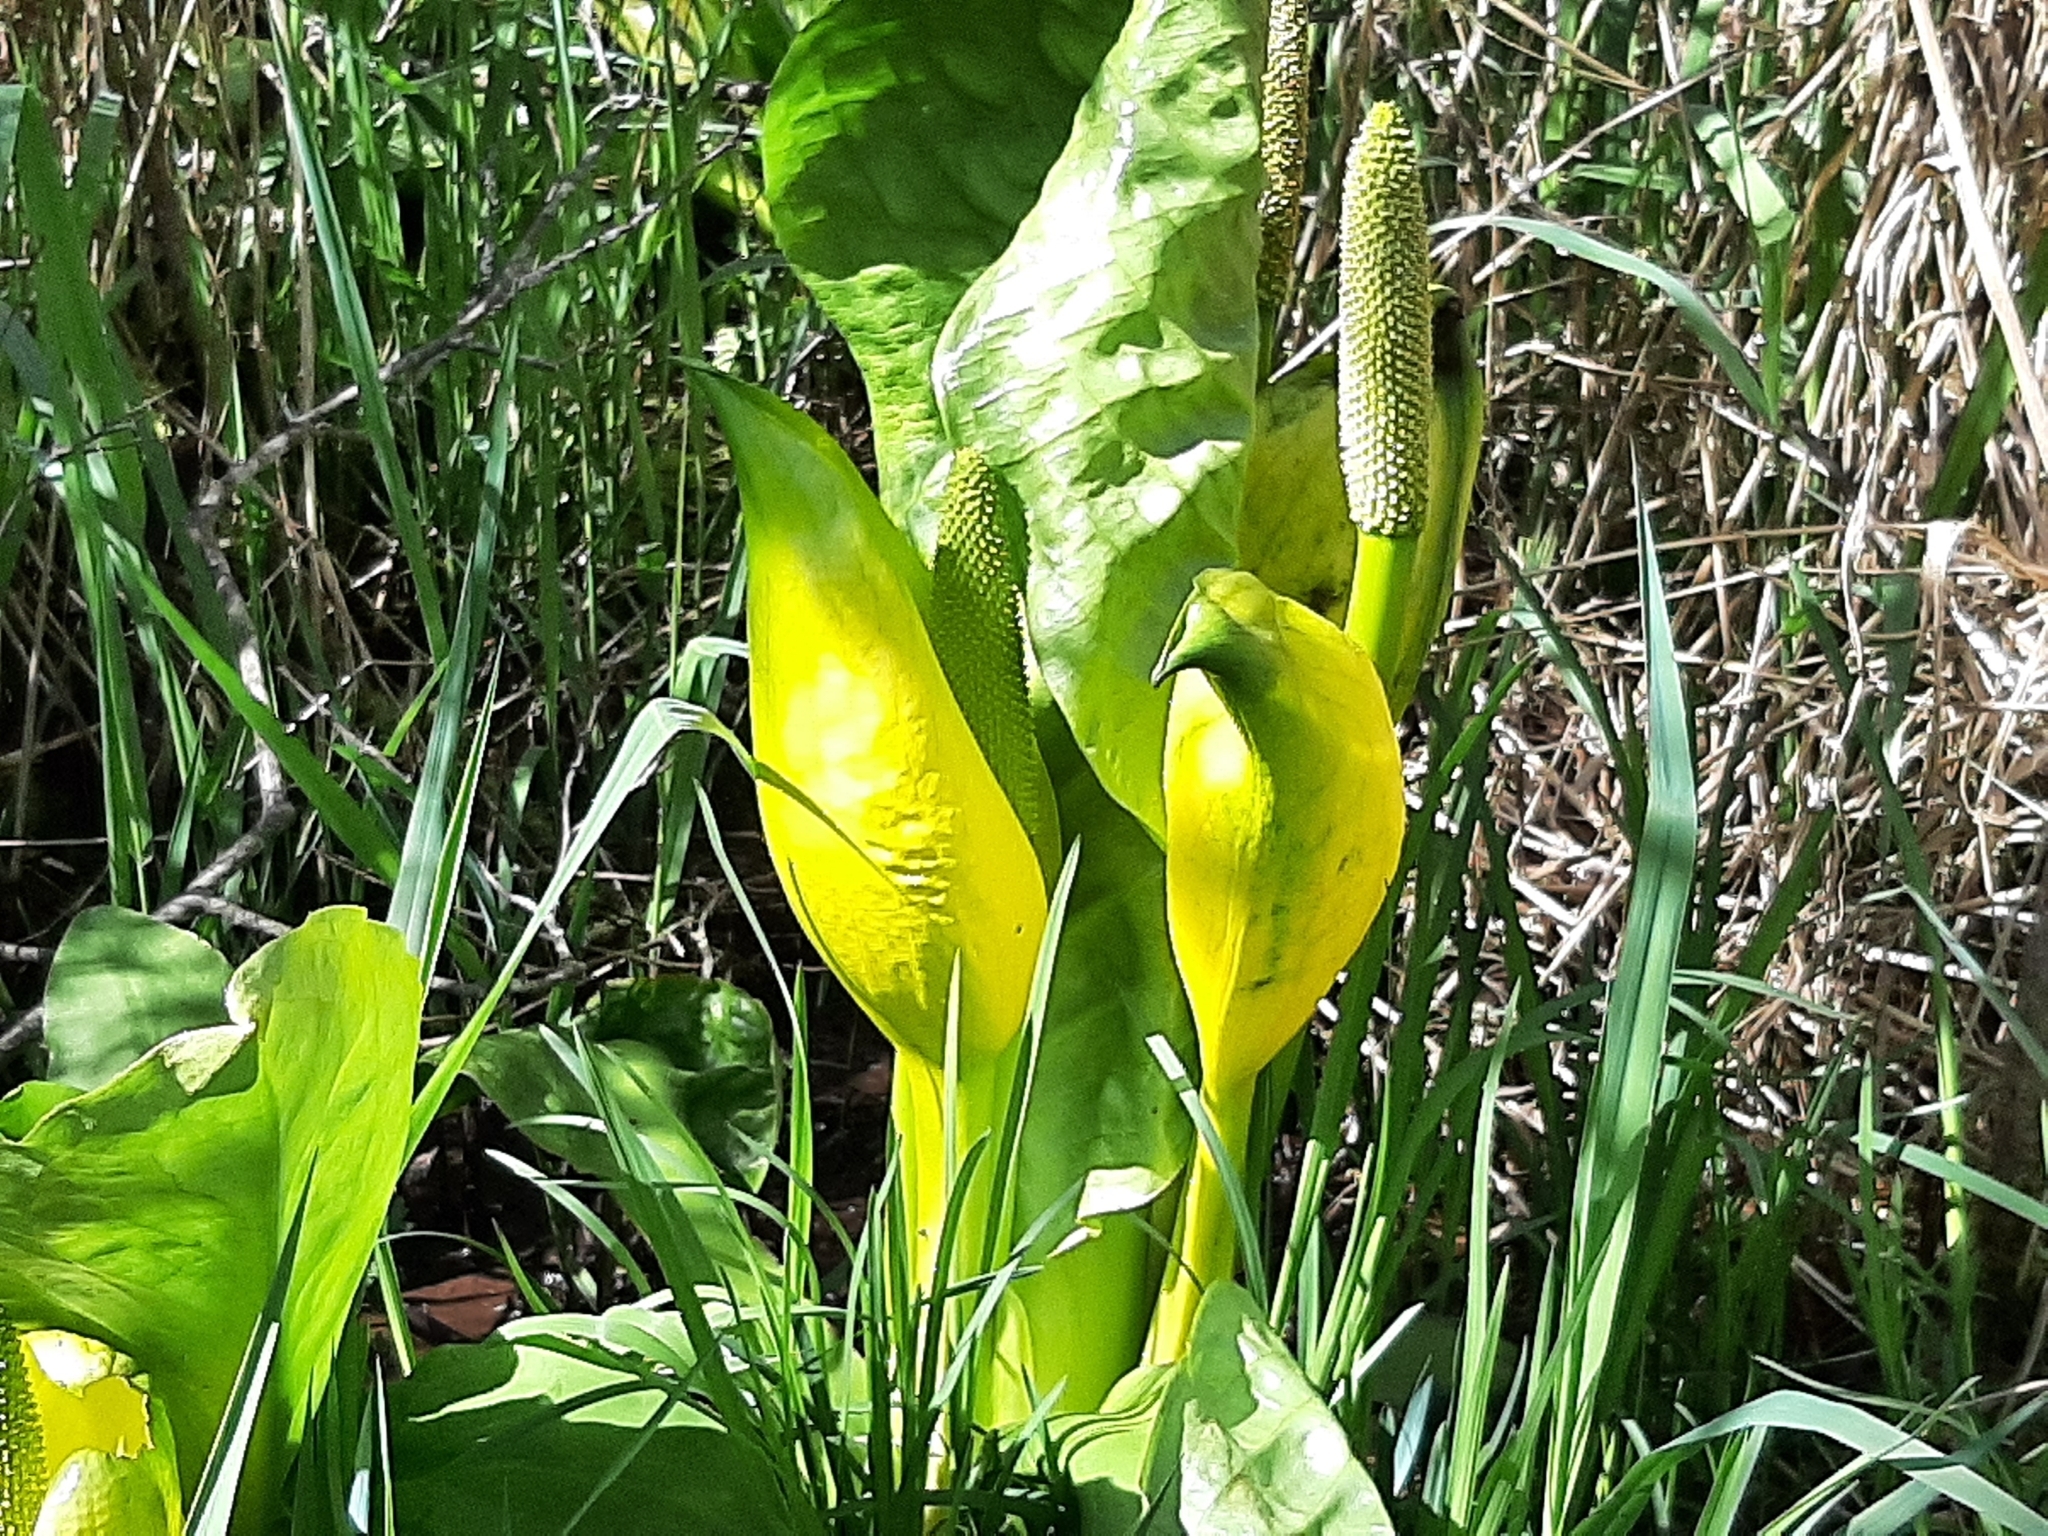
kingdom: Plantae
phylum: Tracheophyta
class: Liliopsida
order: Alismatales
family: Araceae
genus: Lysichiton
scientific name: Lysichiton americanus
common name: American skunk cabbage
